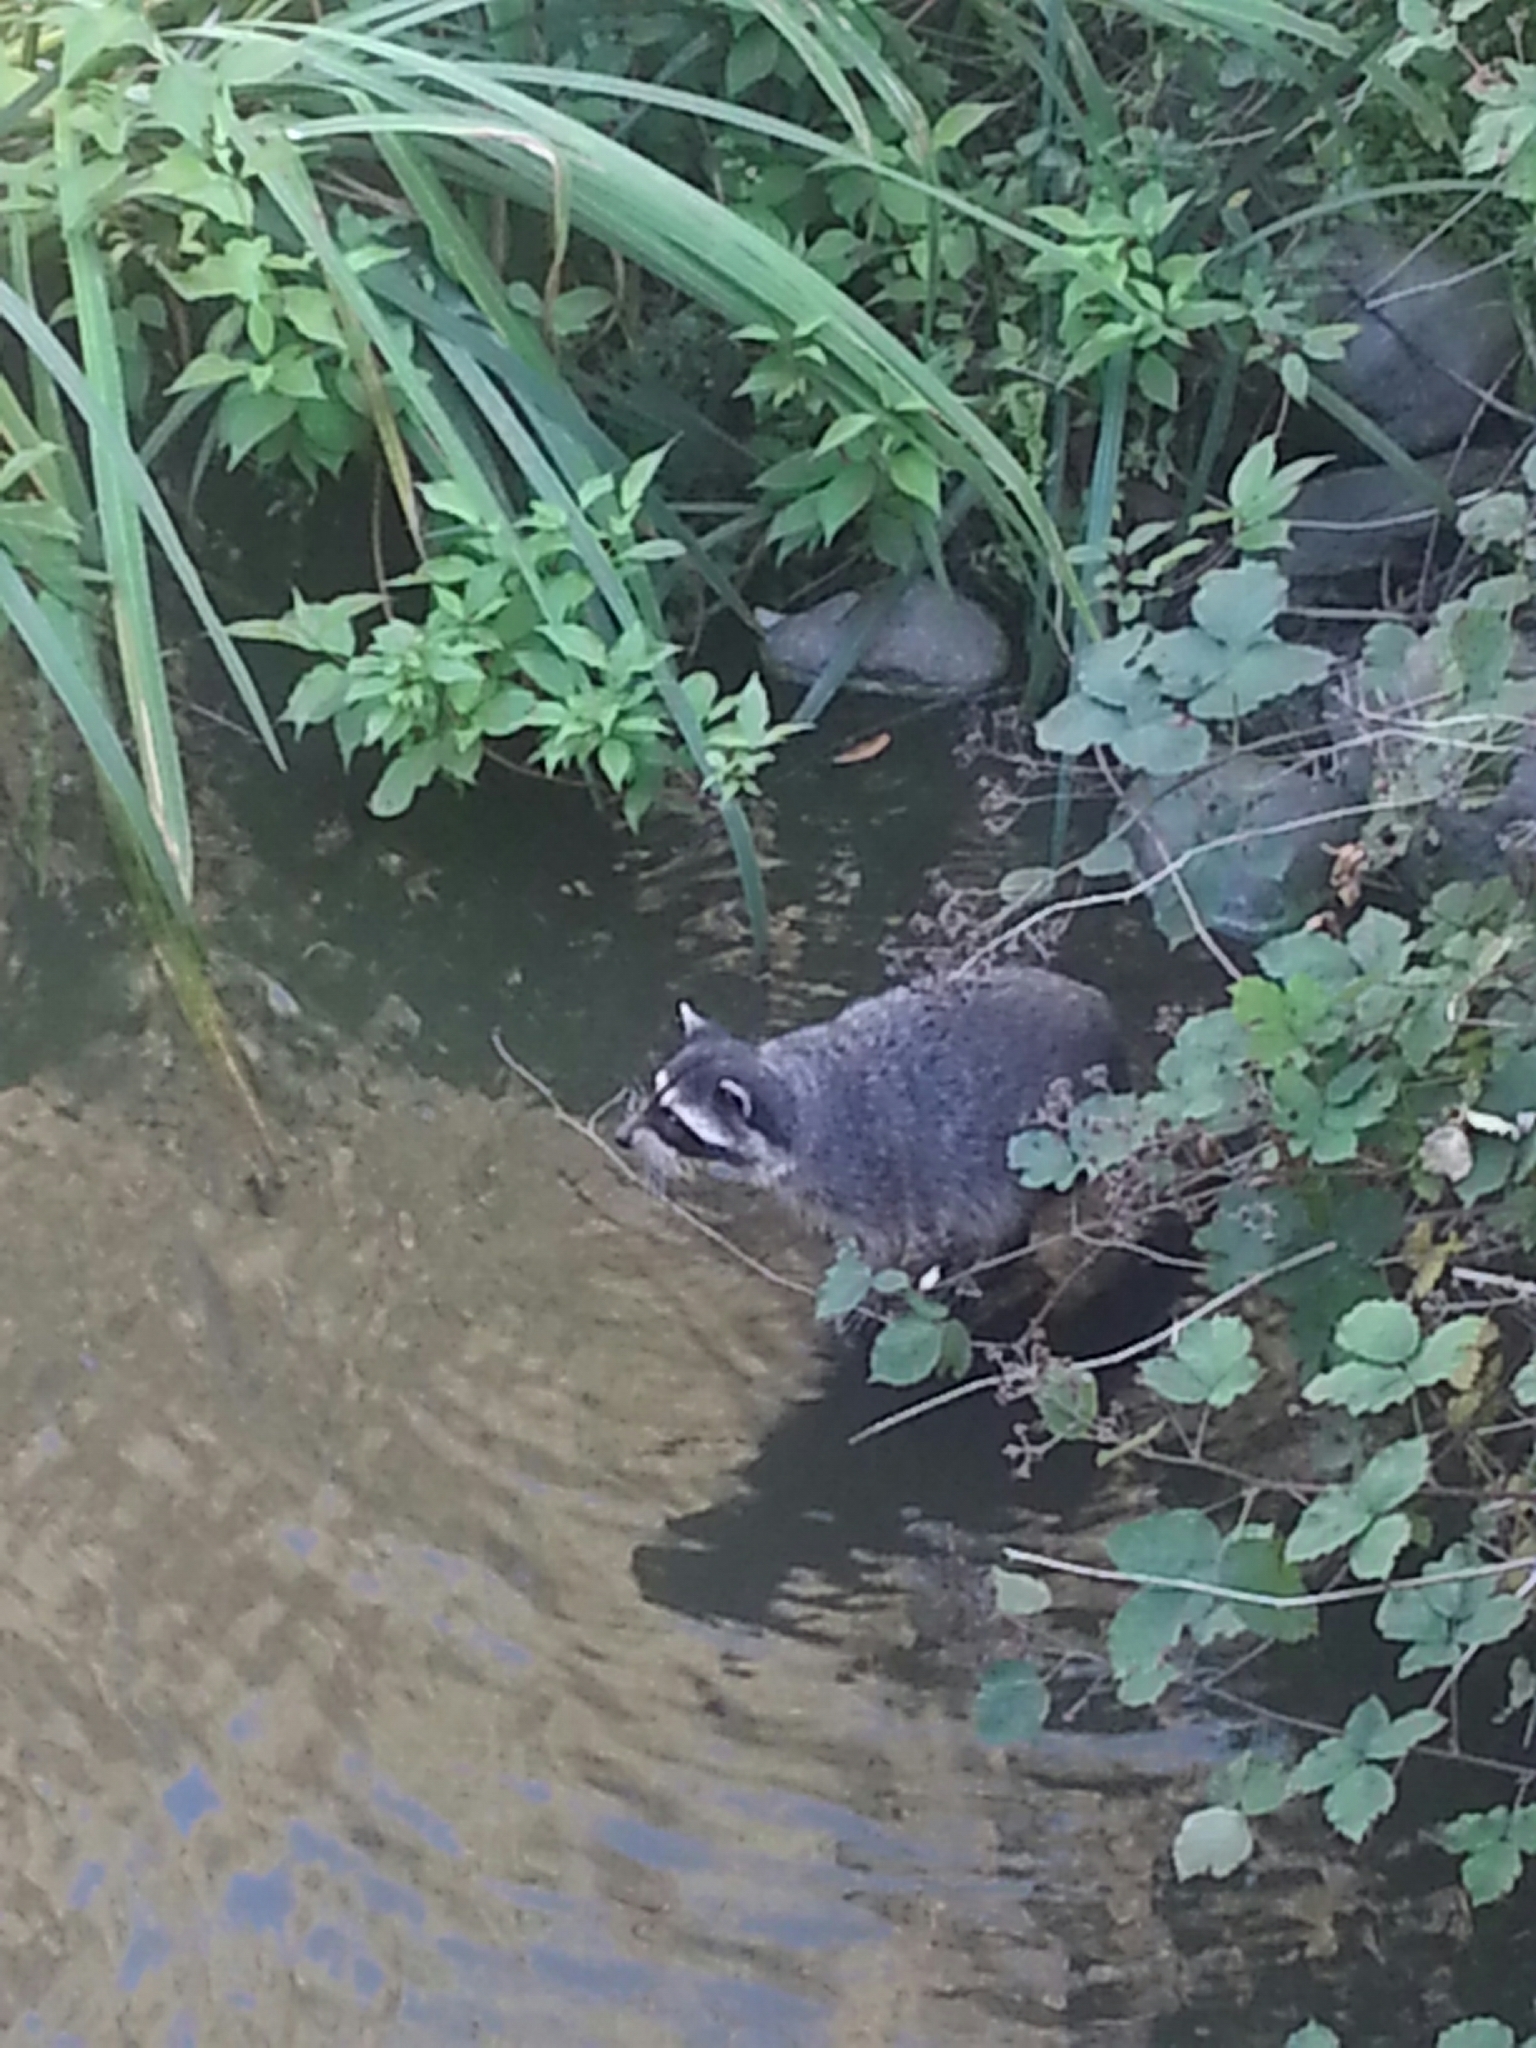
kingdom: Animalia
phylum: Chordata
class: Mammalia
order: Carnivora
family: Procyonidae
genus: Procyon
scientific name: Procyon lotor
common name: Raccoon
